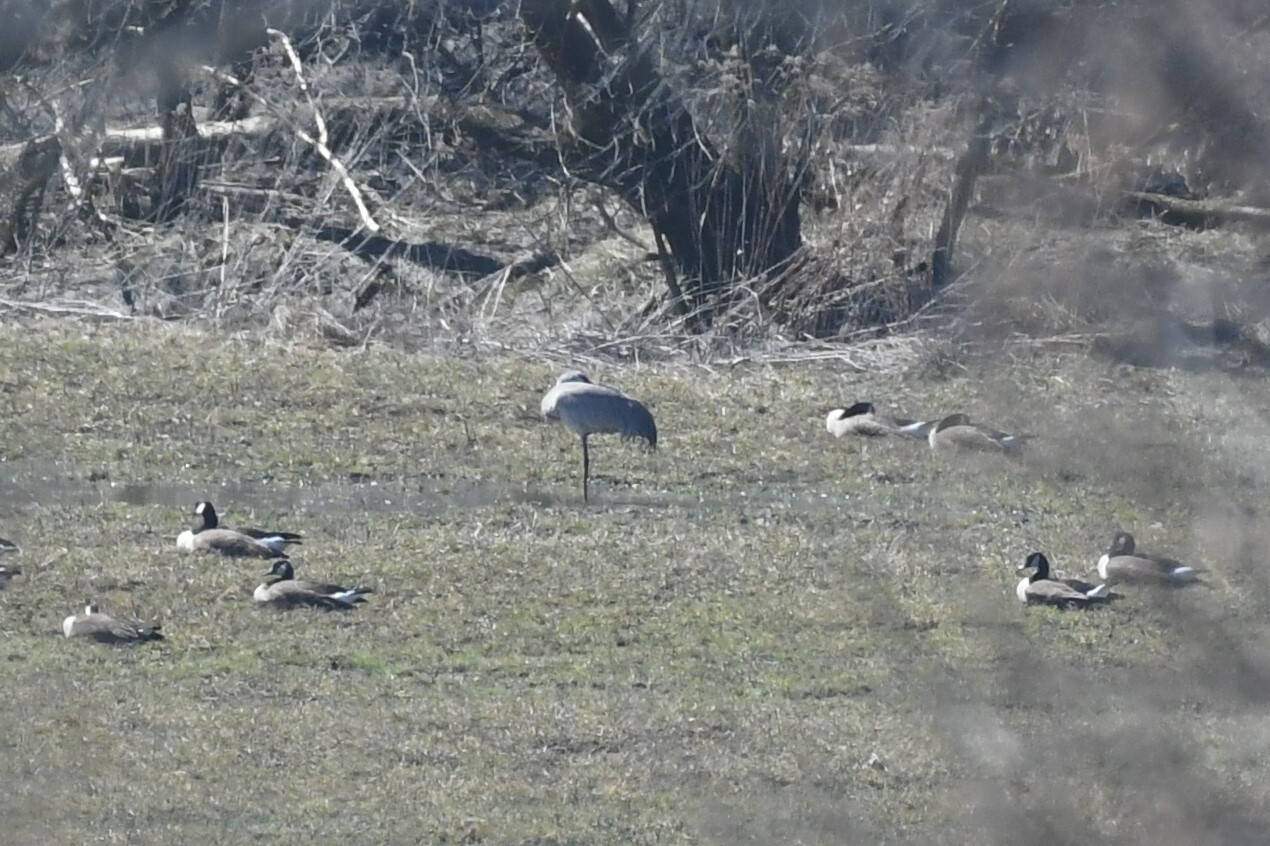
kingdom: Animalia
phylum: Chordata
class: Aves
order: Gruiformes
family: Gruidae
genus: Grus
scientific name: Grus canadensis
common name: Sandhill crane
